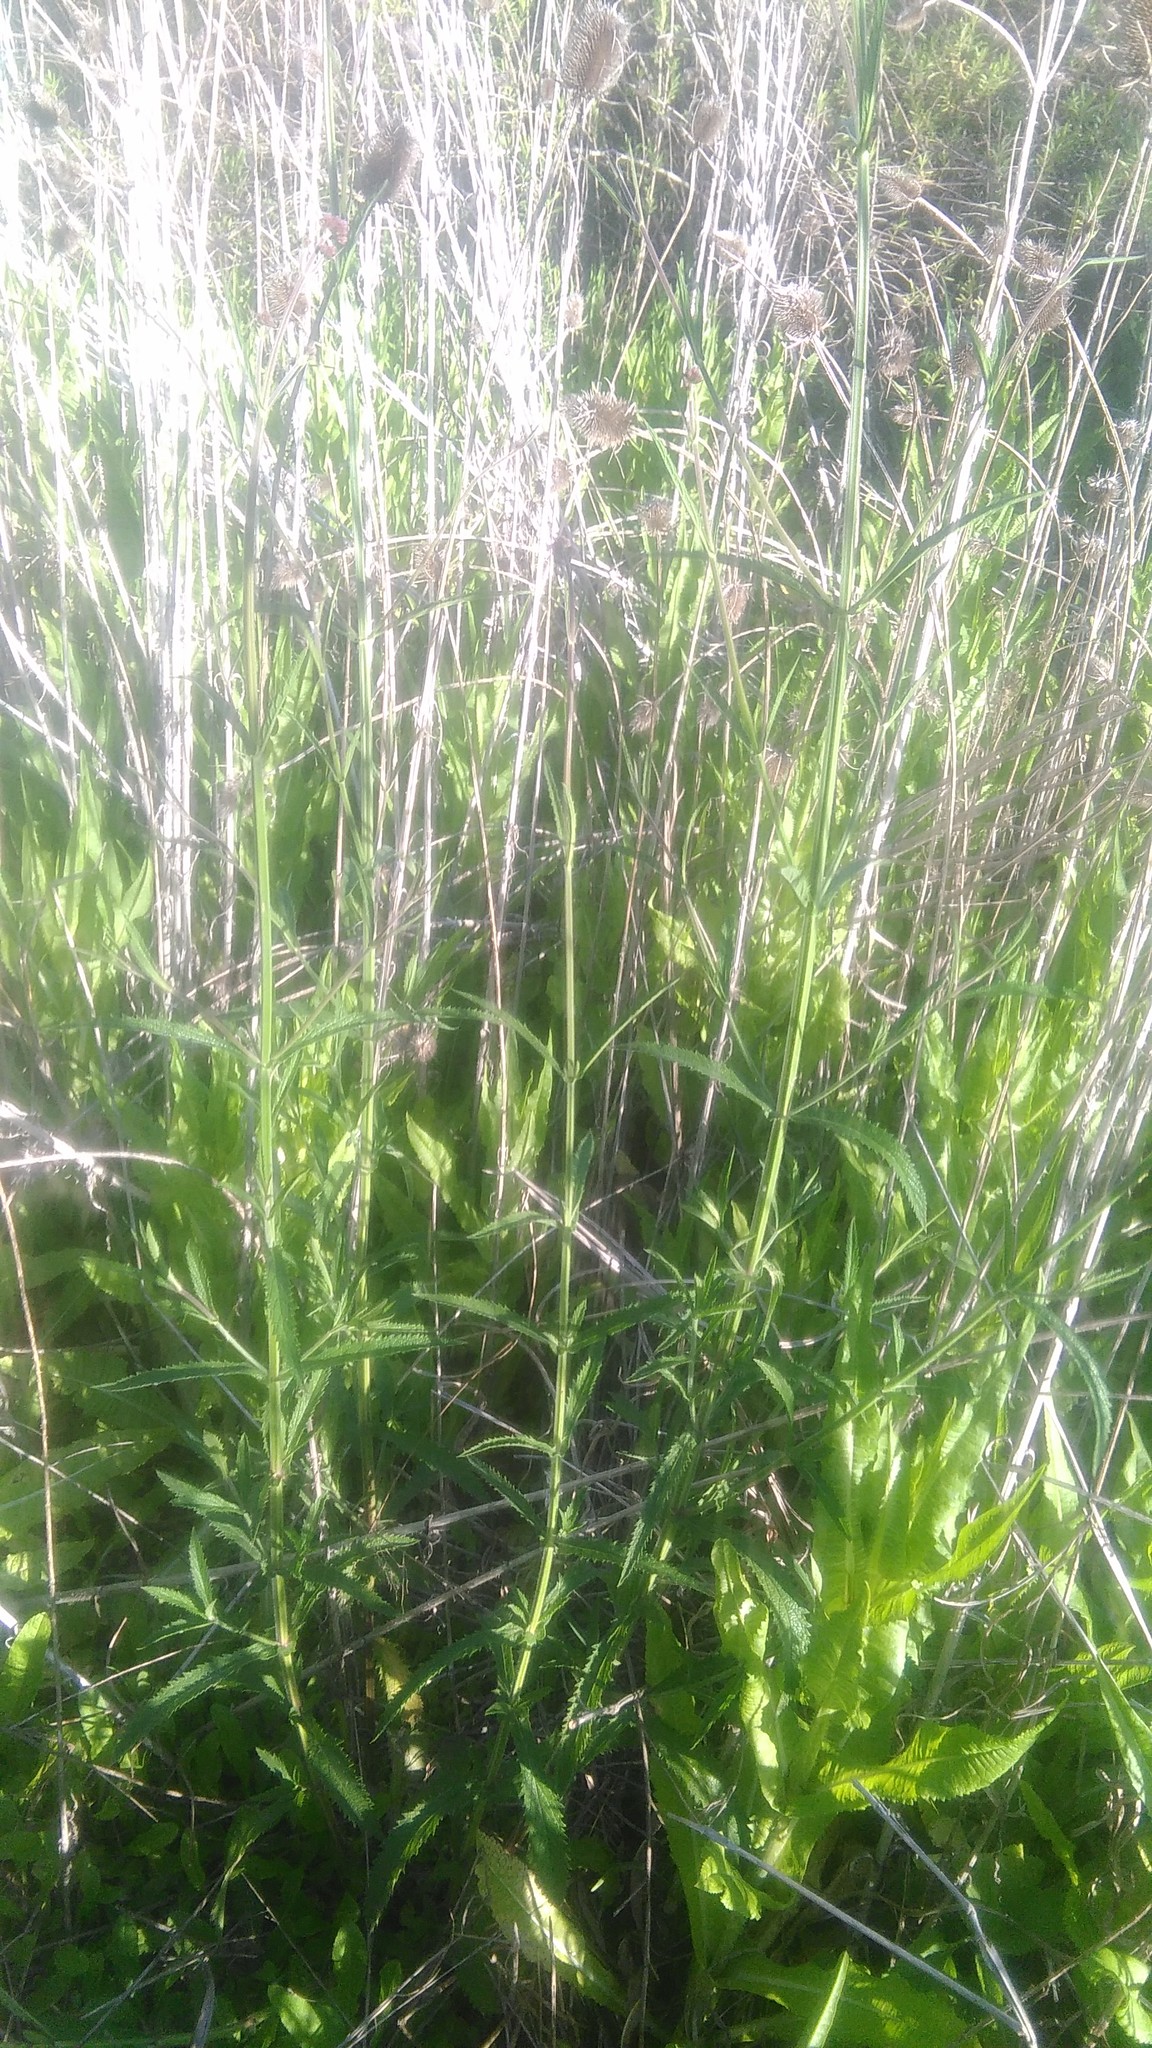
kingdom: Plantae
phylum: Tracheophyta
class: Magnoliopsida
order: Lamiales
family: Verbenaceae
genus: Verbena
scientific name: Verbena bonariensis
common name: Purpletop vervain
